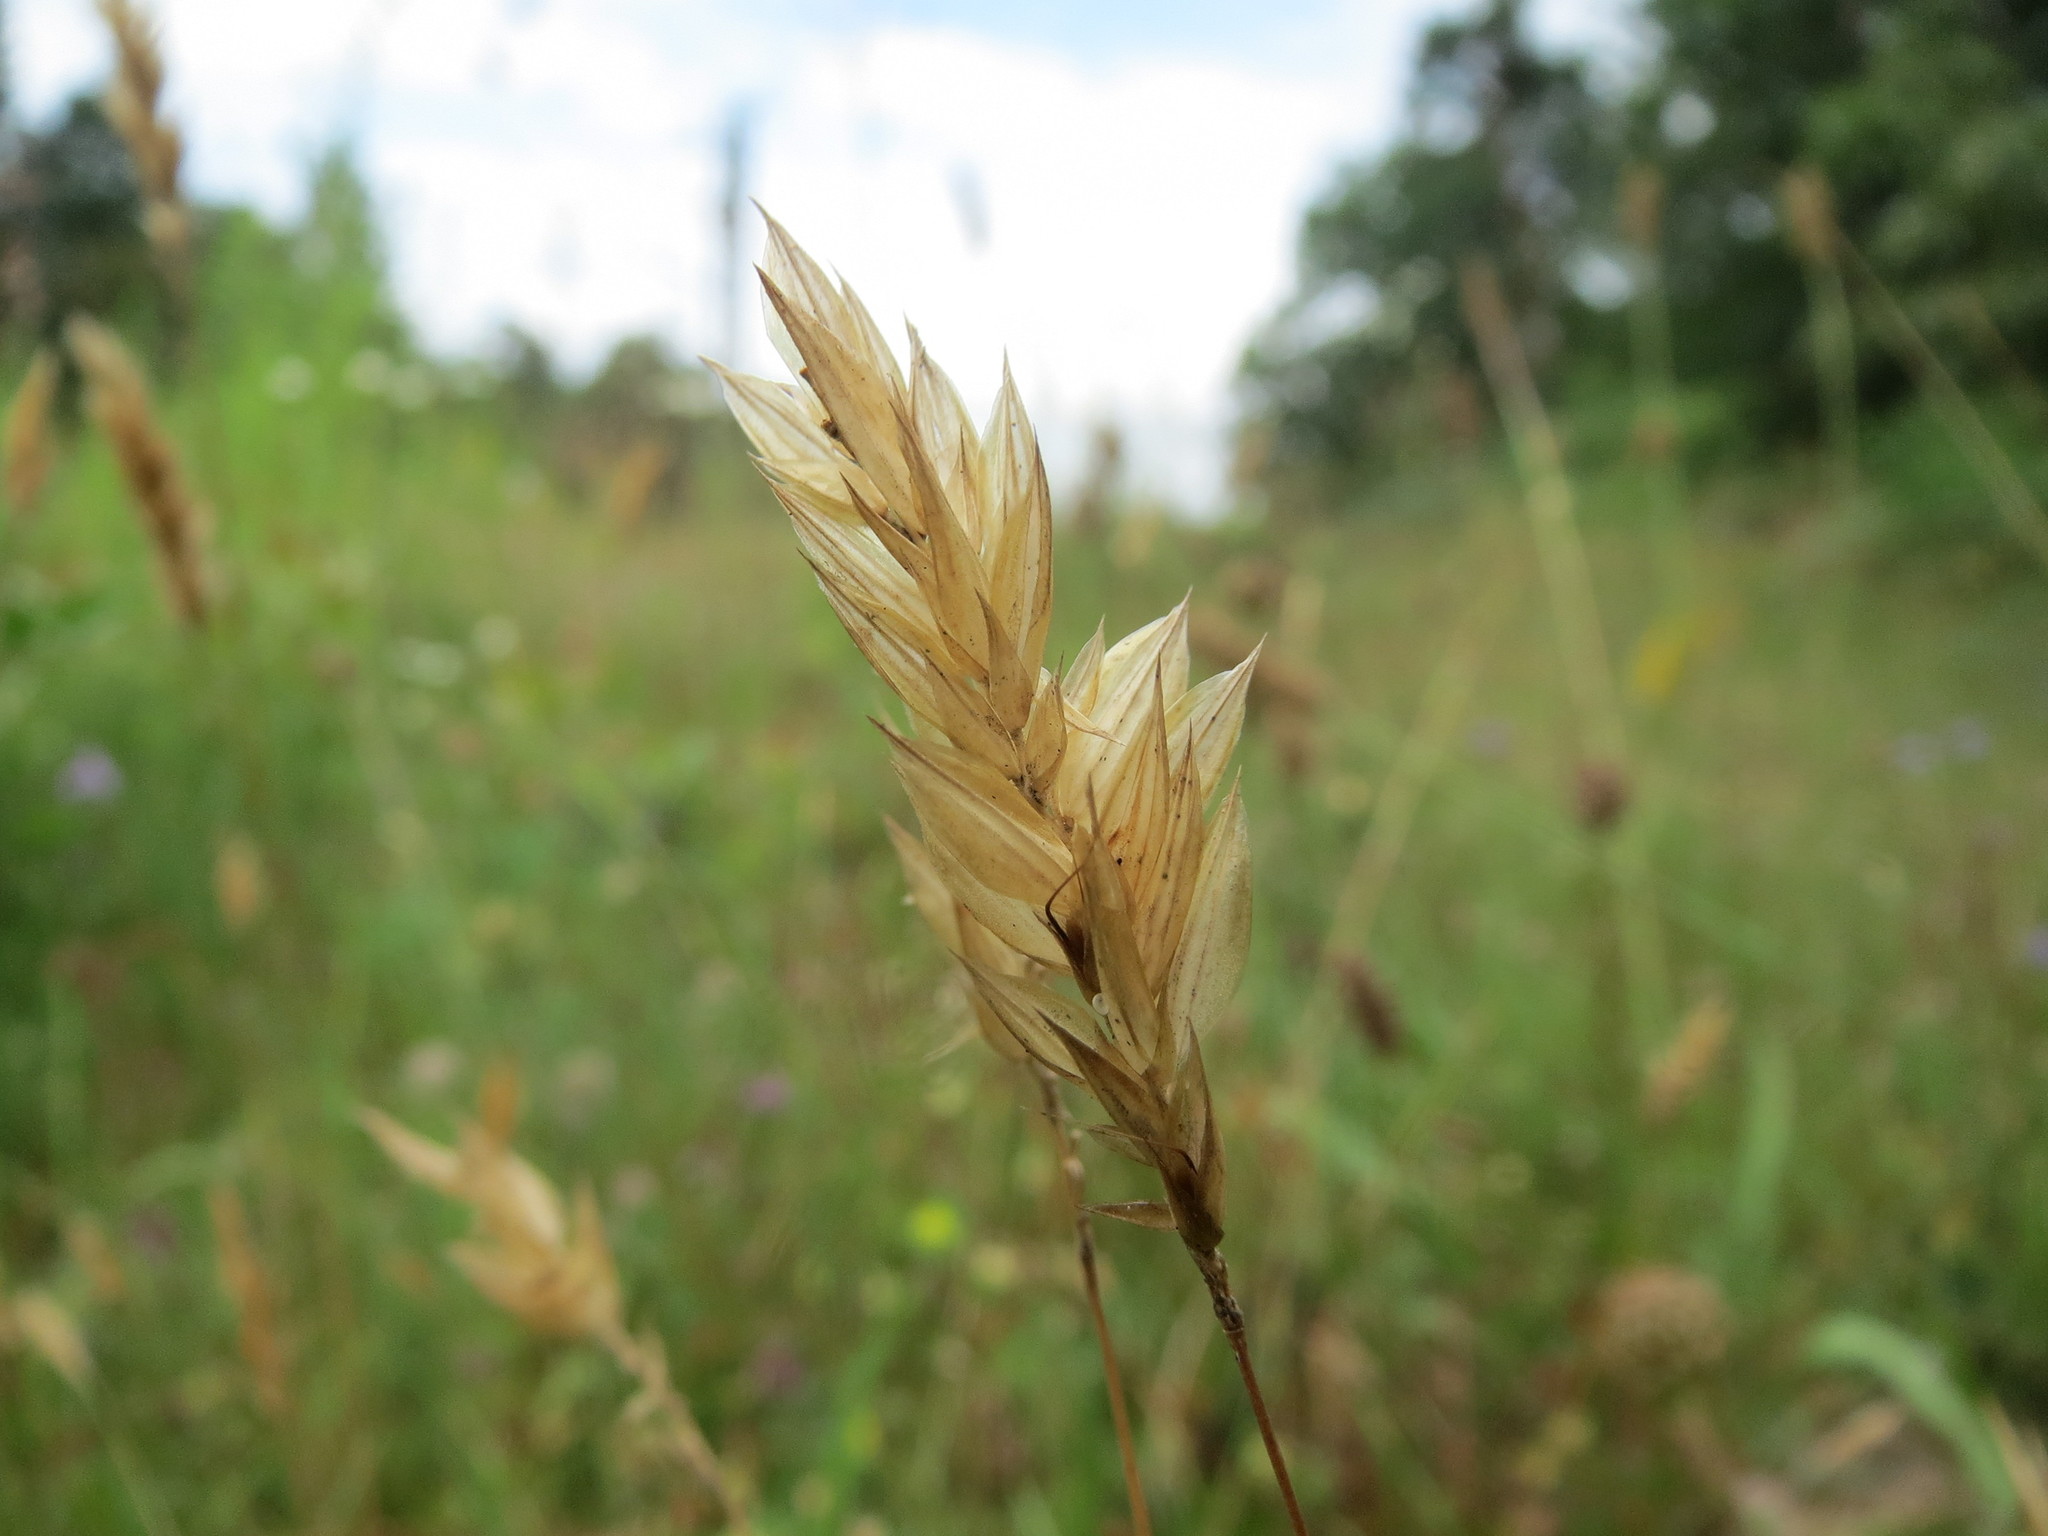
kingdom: Plantae
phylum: Tracheophyta
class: Liliopsida
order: Poales
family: Poaceae
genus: Anthoxanthum
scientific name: Anthoxanthum odoratum
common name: Sweet vernalgrass
